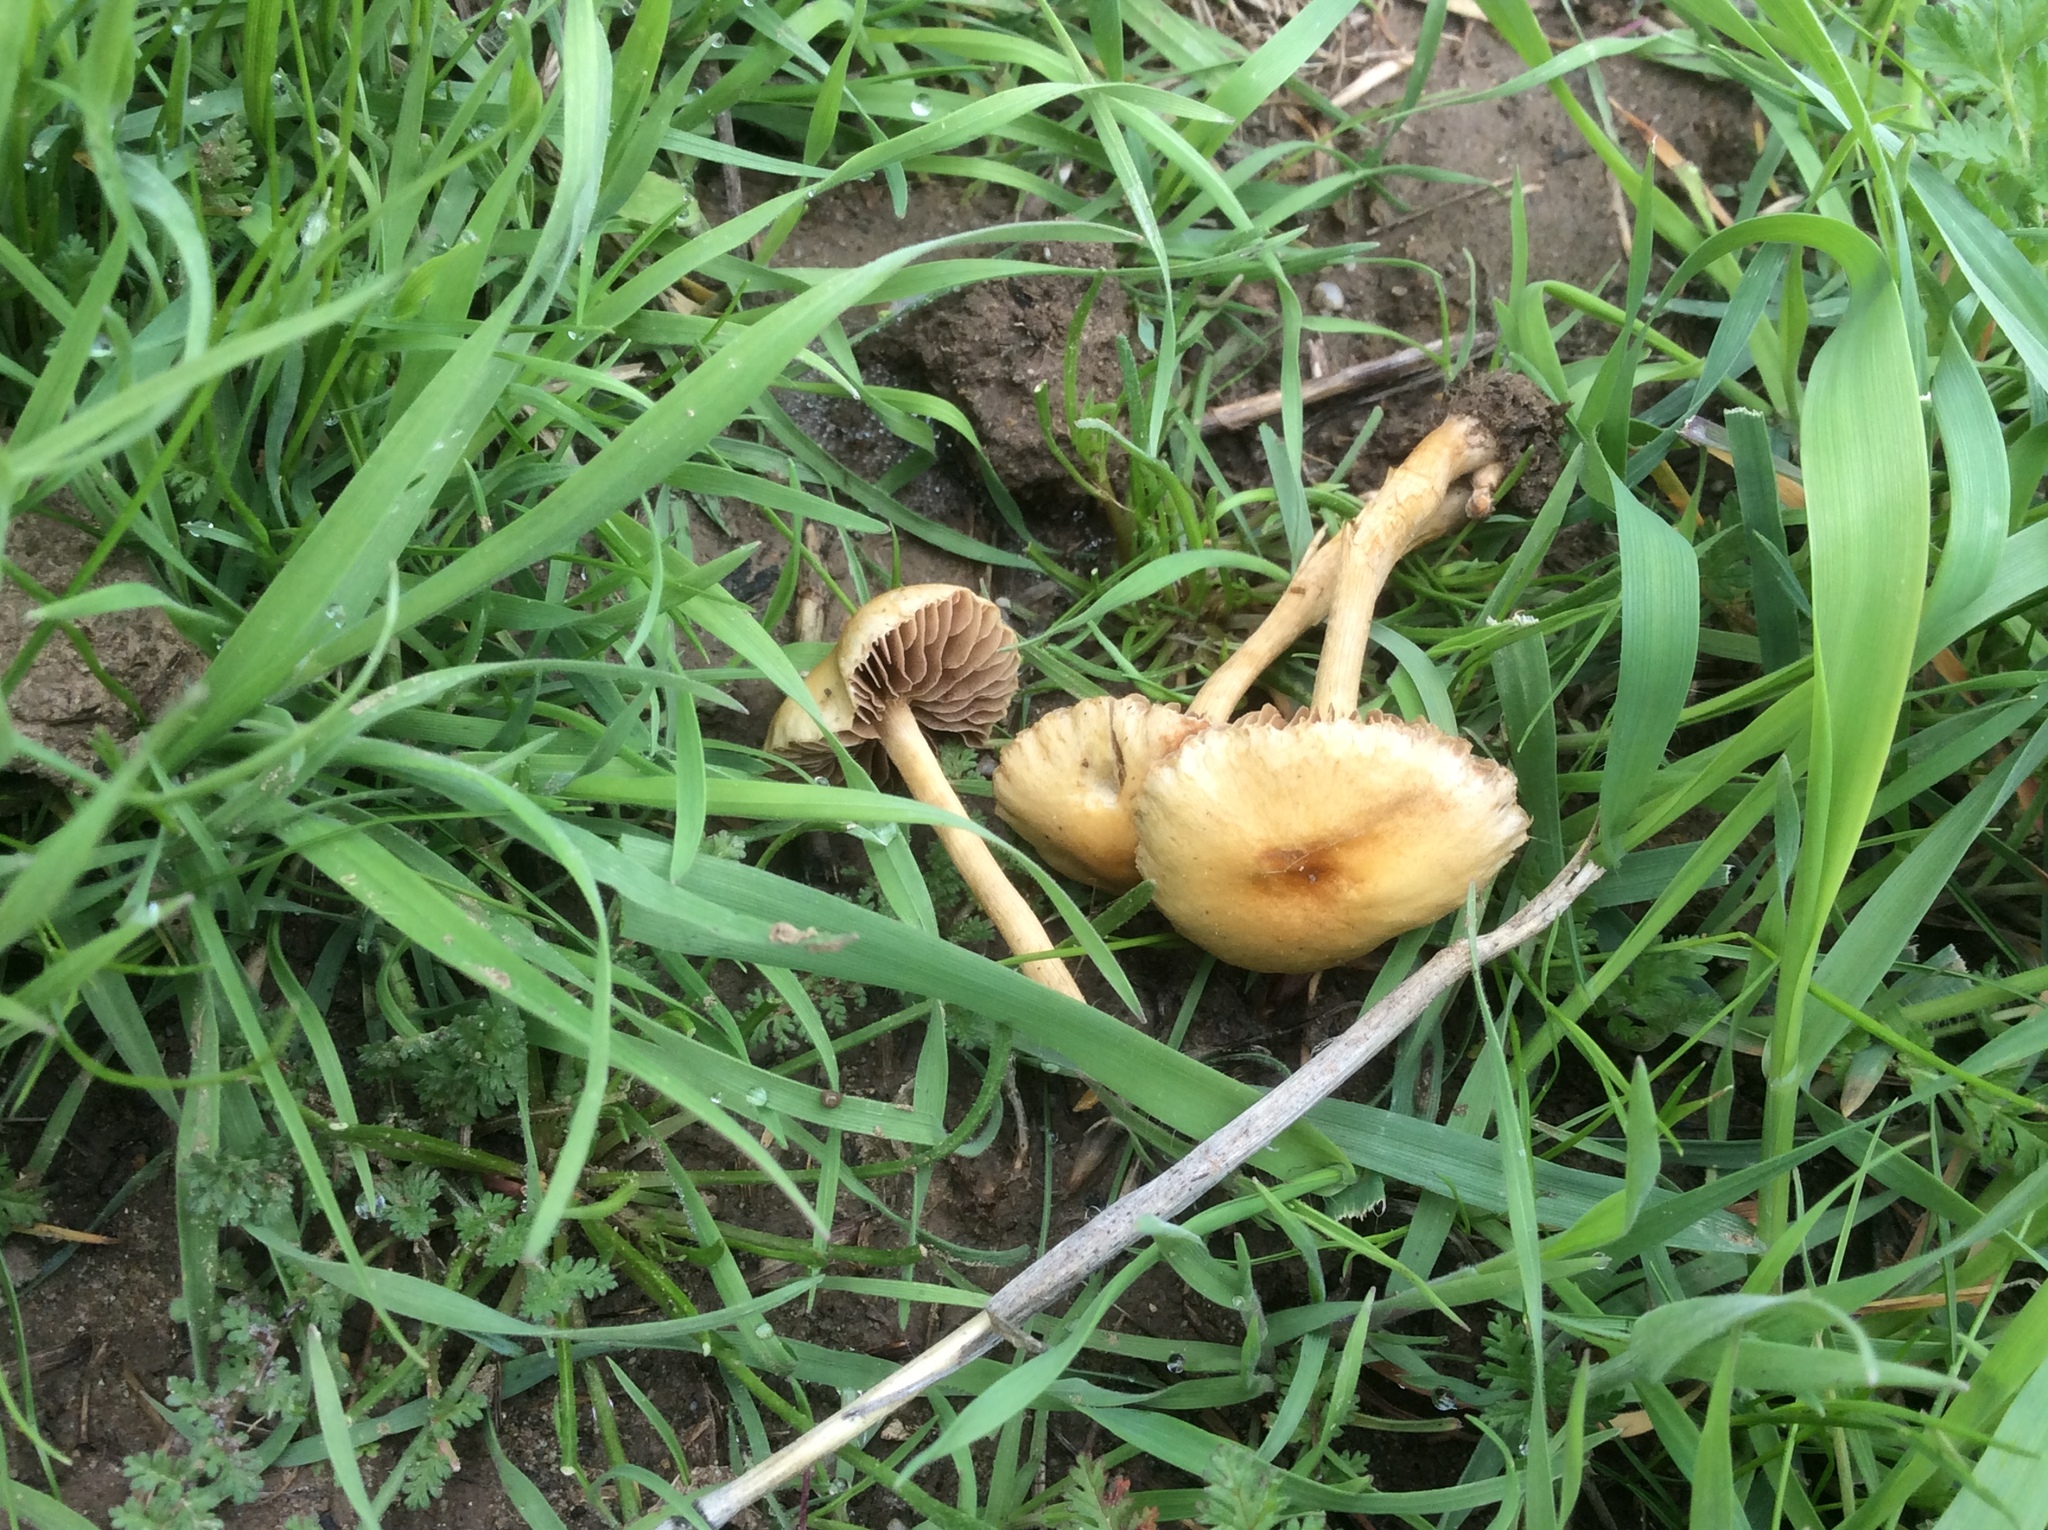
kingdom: Fungi
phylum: Basidiomycota
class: Agaricomycetes
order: Agaricales
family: Strophariaceae
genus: Agrocybe
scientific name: Agrocybe pediades
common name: Common fieldcap
